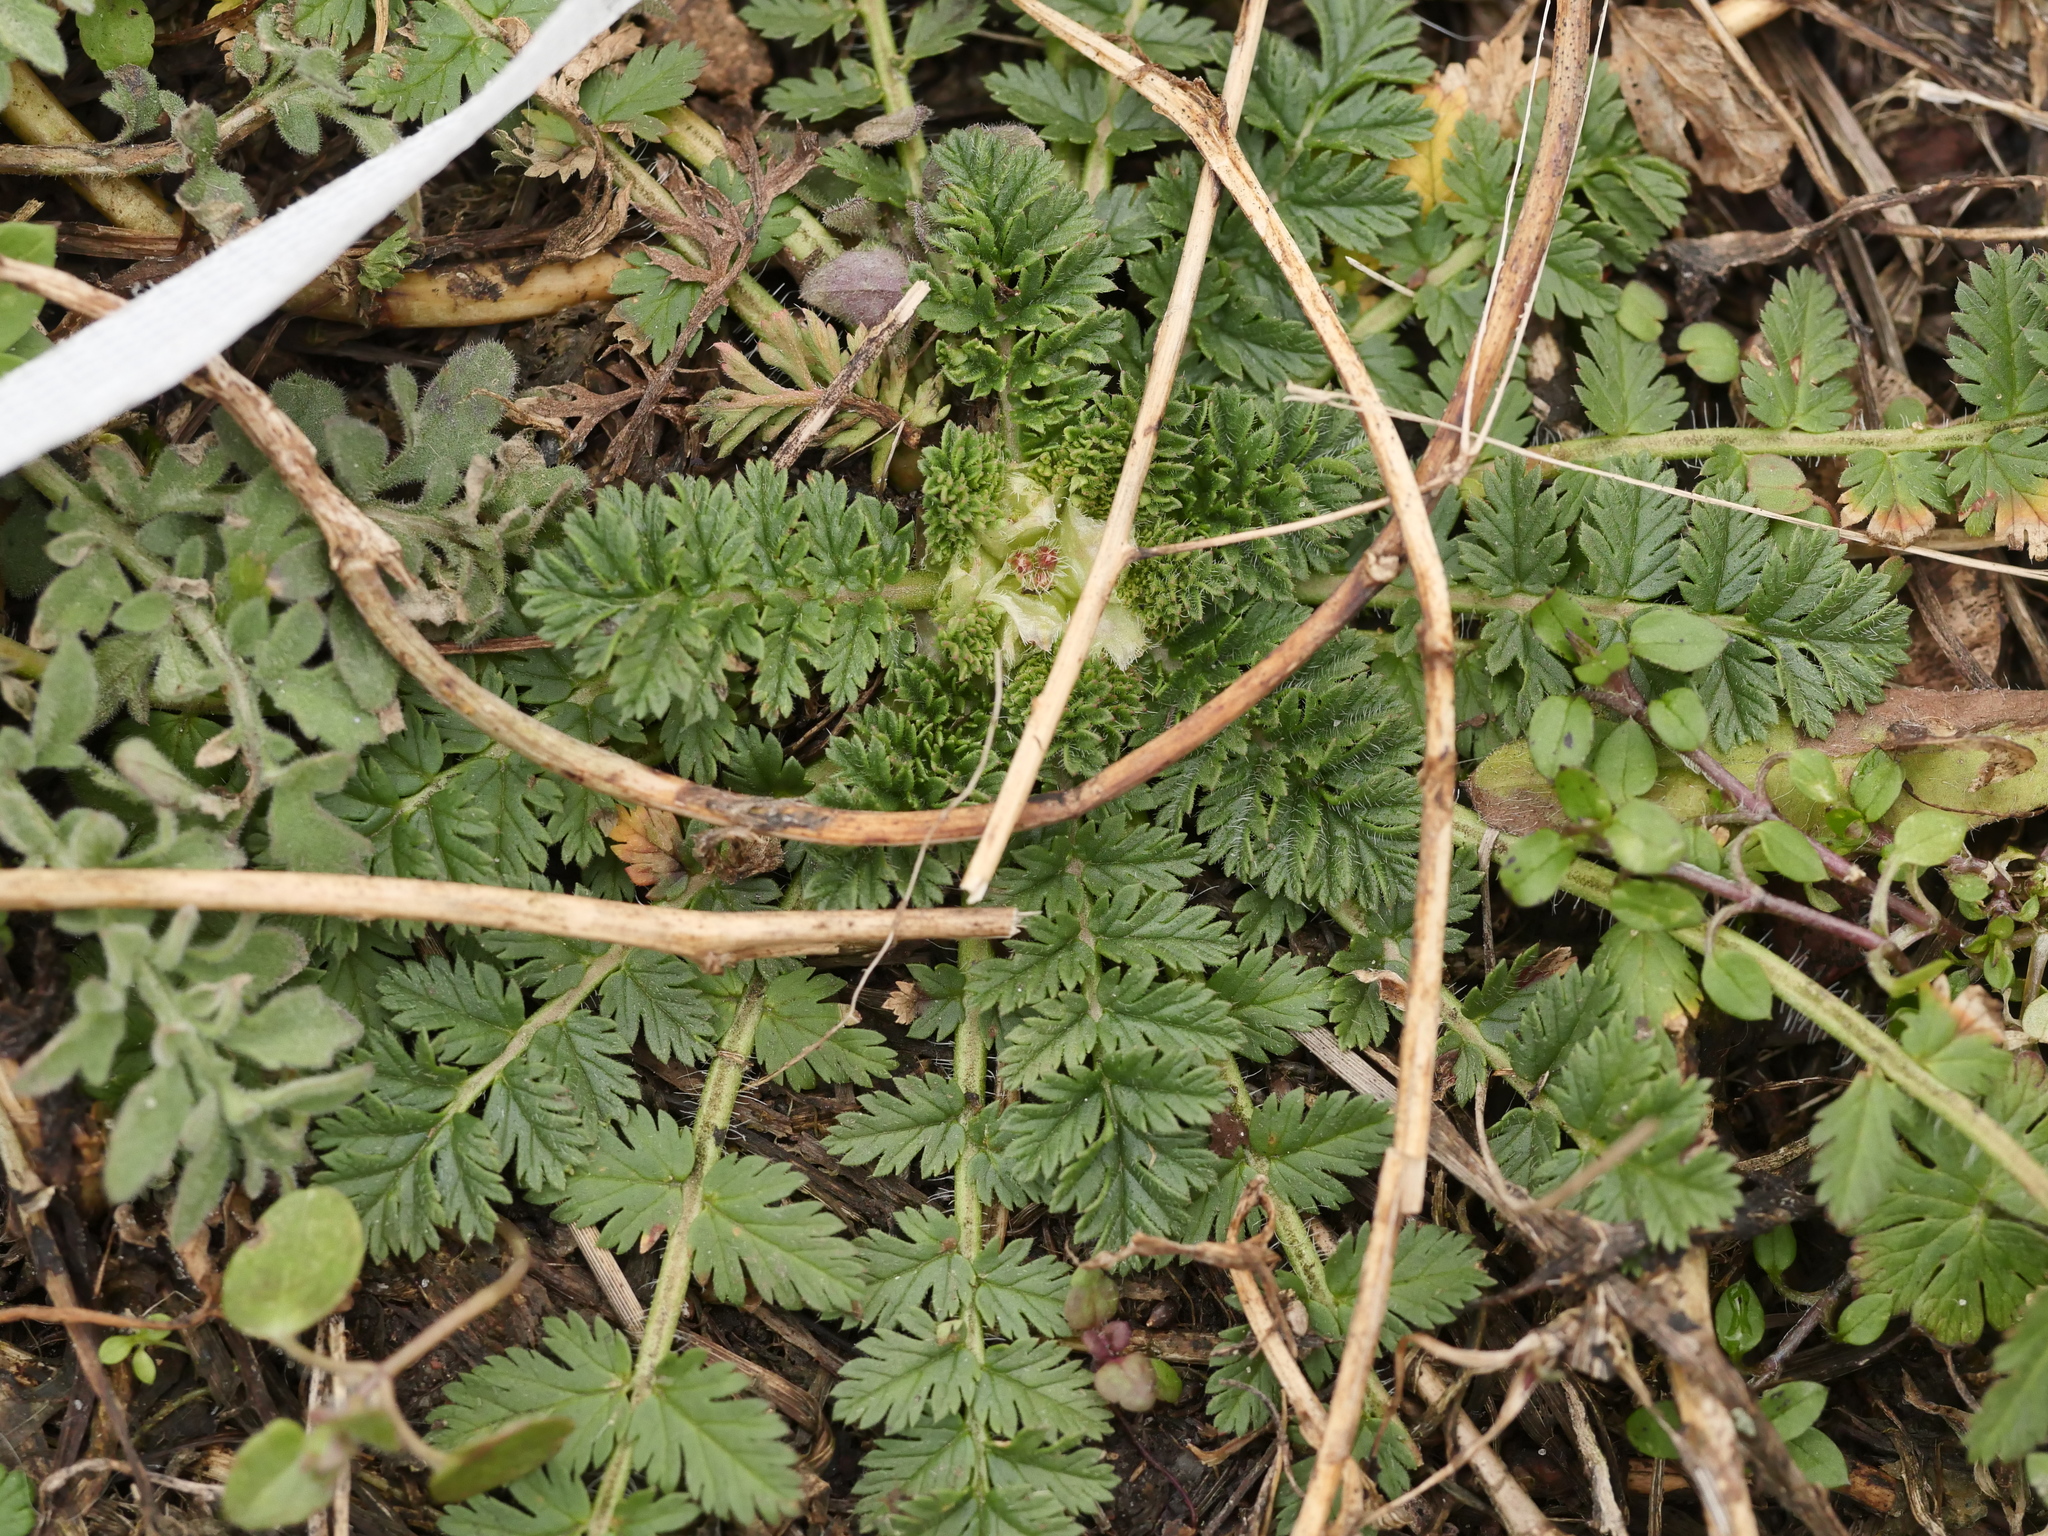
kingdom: Plantae
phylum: Tracheophyta
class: Magnoliopsida
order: Geraniales
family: Geraniaceae
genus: Erodium
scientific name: Erodium cicutarium
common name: Common stork's-bill
